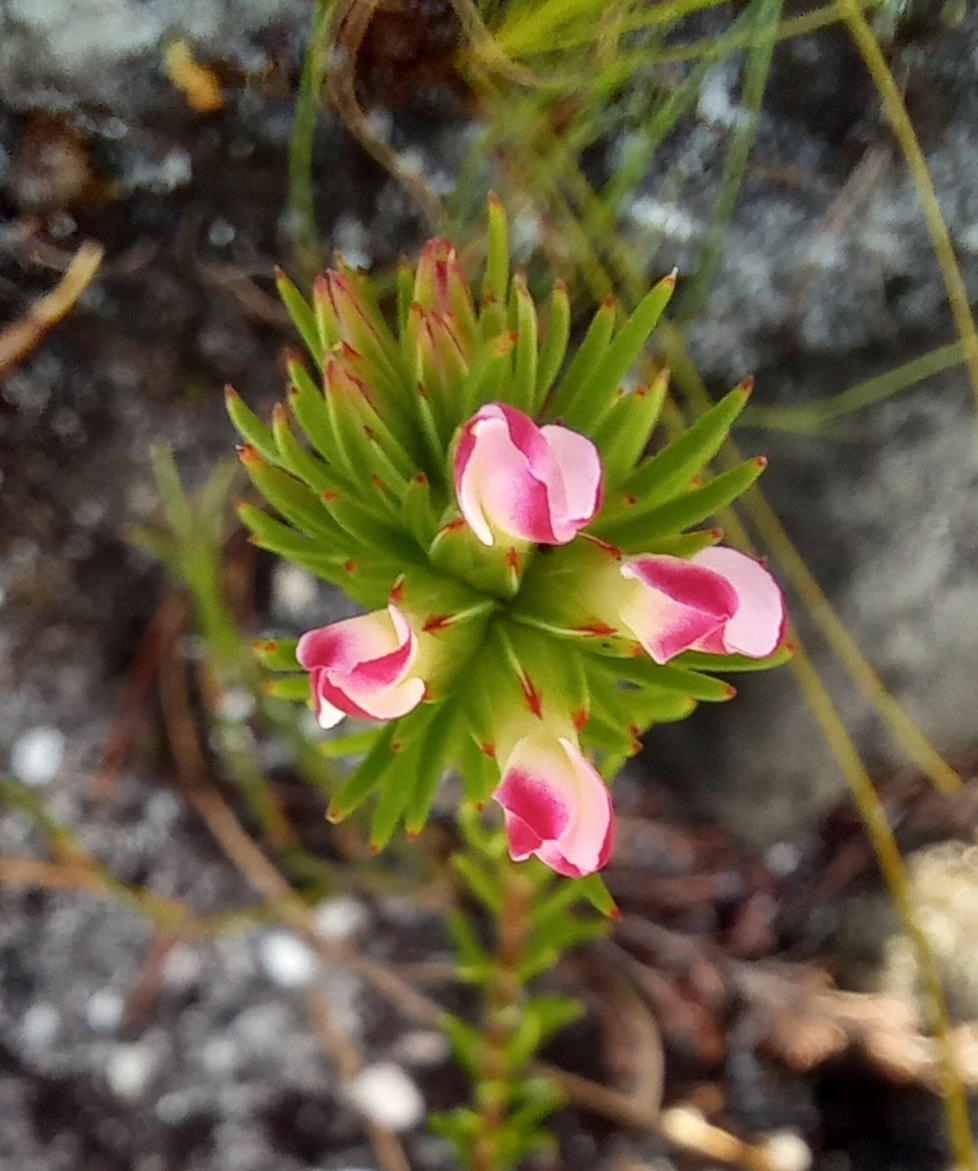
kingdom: Plantae
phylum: Tracheophyta
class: Magnoliopsida
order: Ericales
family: Ericaceae
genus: Erica
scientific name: Erica fastigiata
